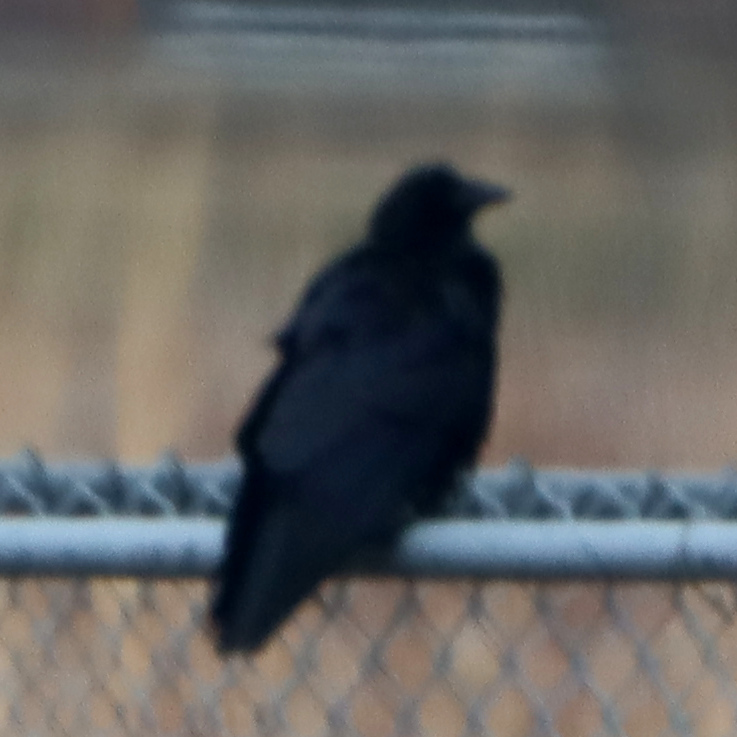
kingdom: Animalia
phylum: Chordata
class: Aves
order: Passeriformes
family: Corvidae
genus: Corvus
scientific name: Corvus corax
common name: Common raven
